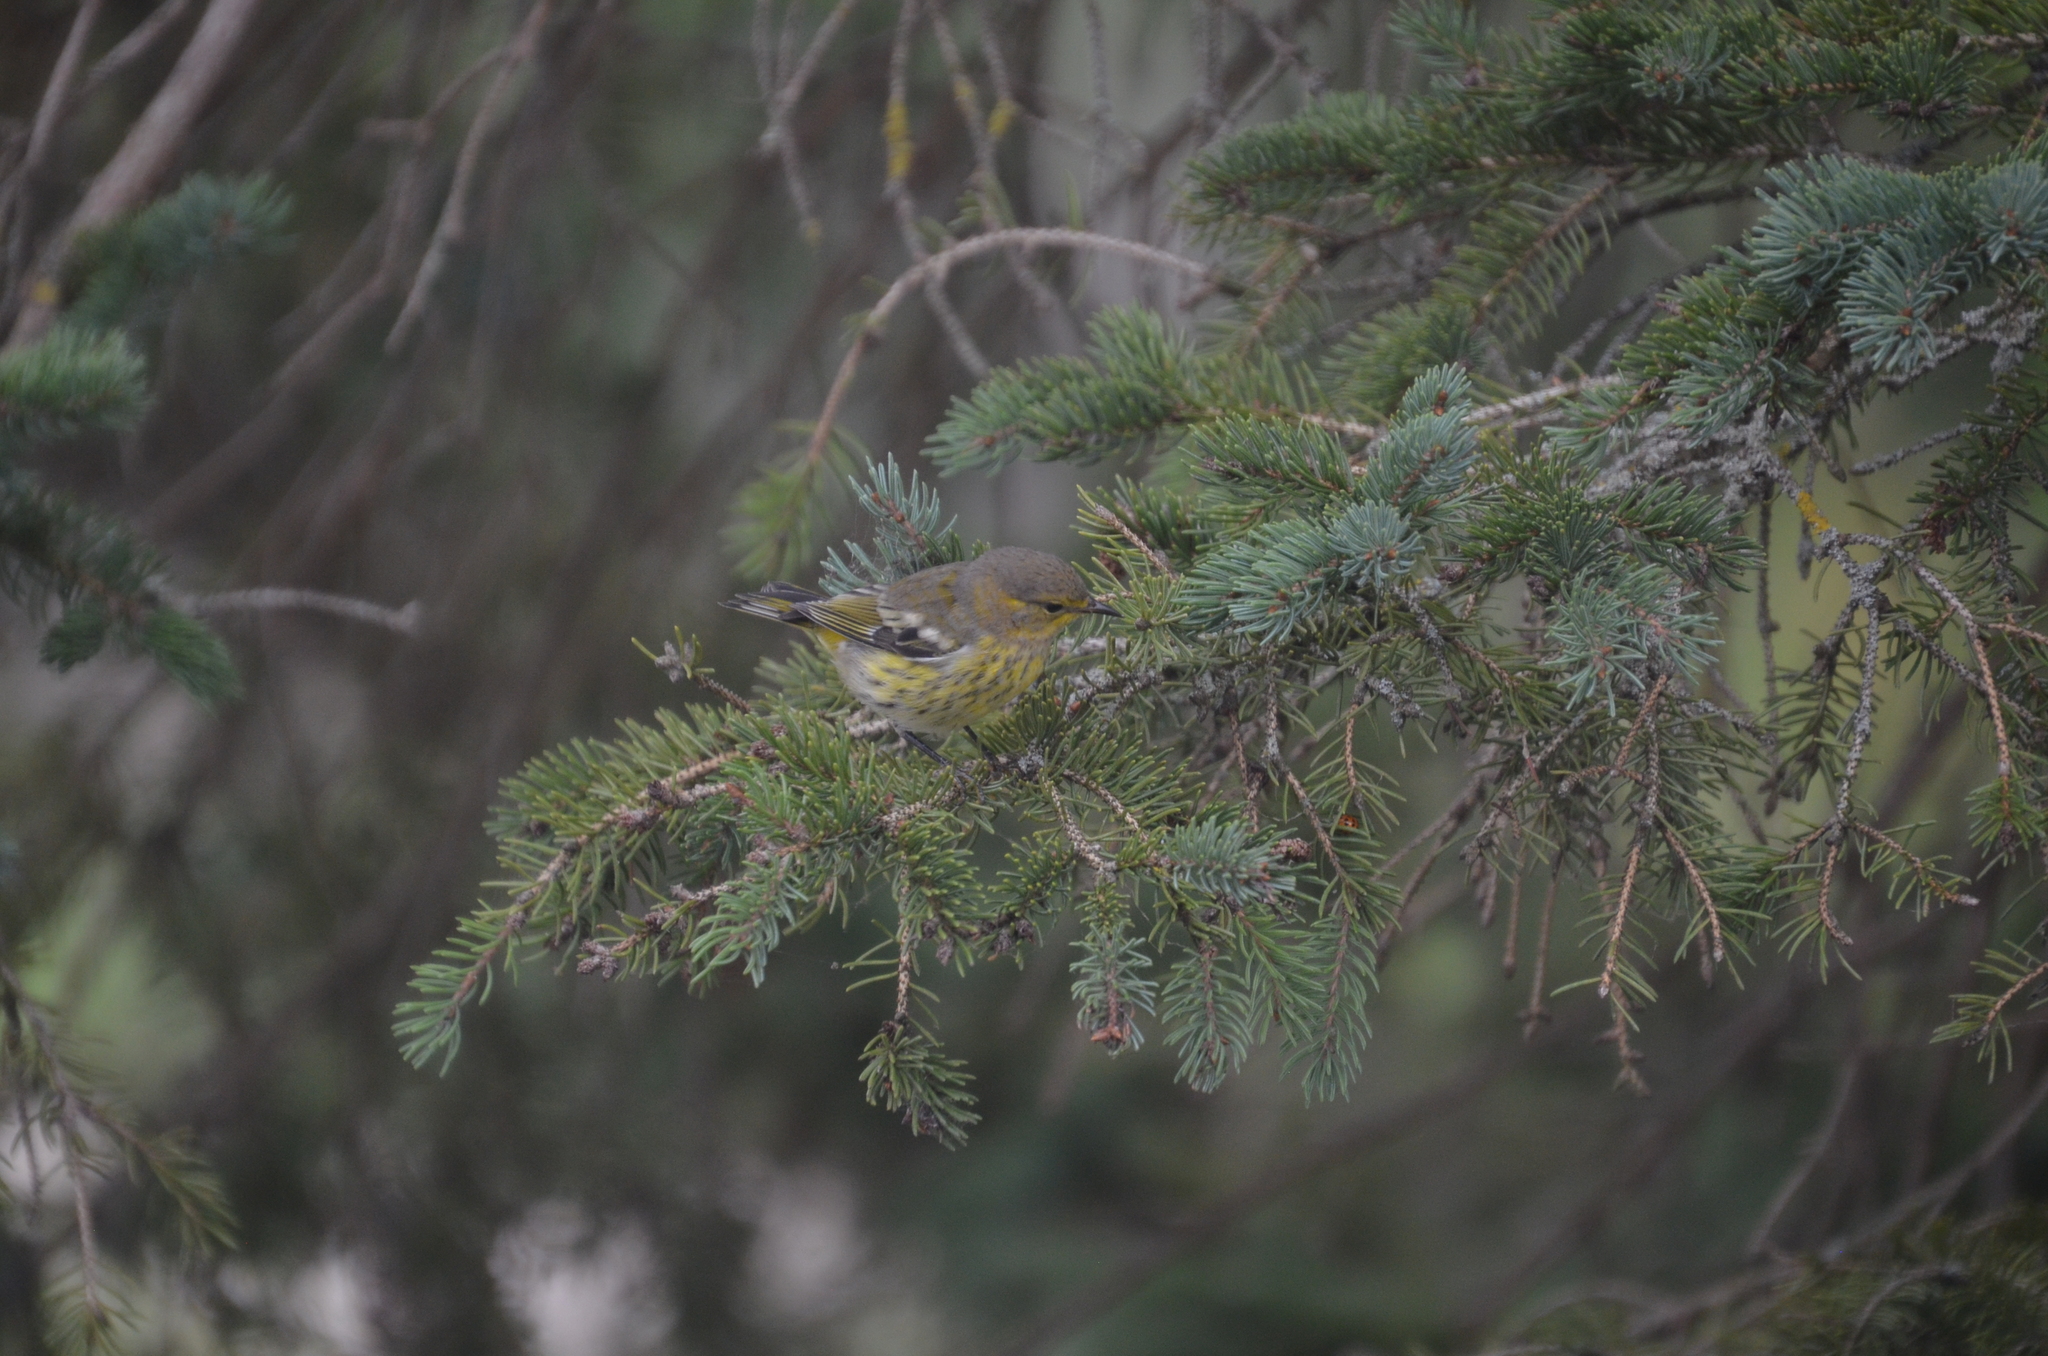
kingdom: Animalia
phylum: Chordata
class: Aves
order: Passeriformes
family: Parulidae
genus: Setophaga
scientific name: Setophaga tigrina
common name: Cape may warbler
